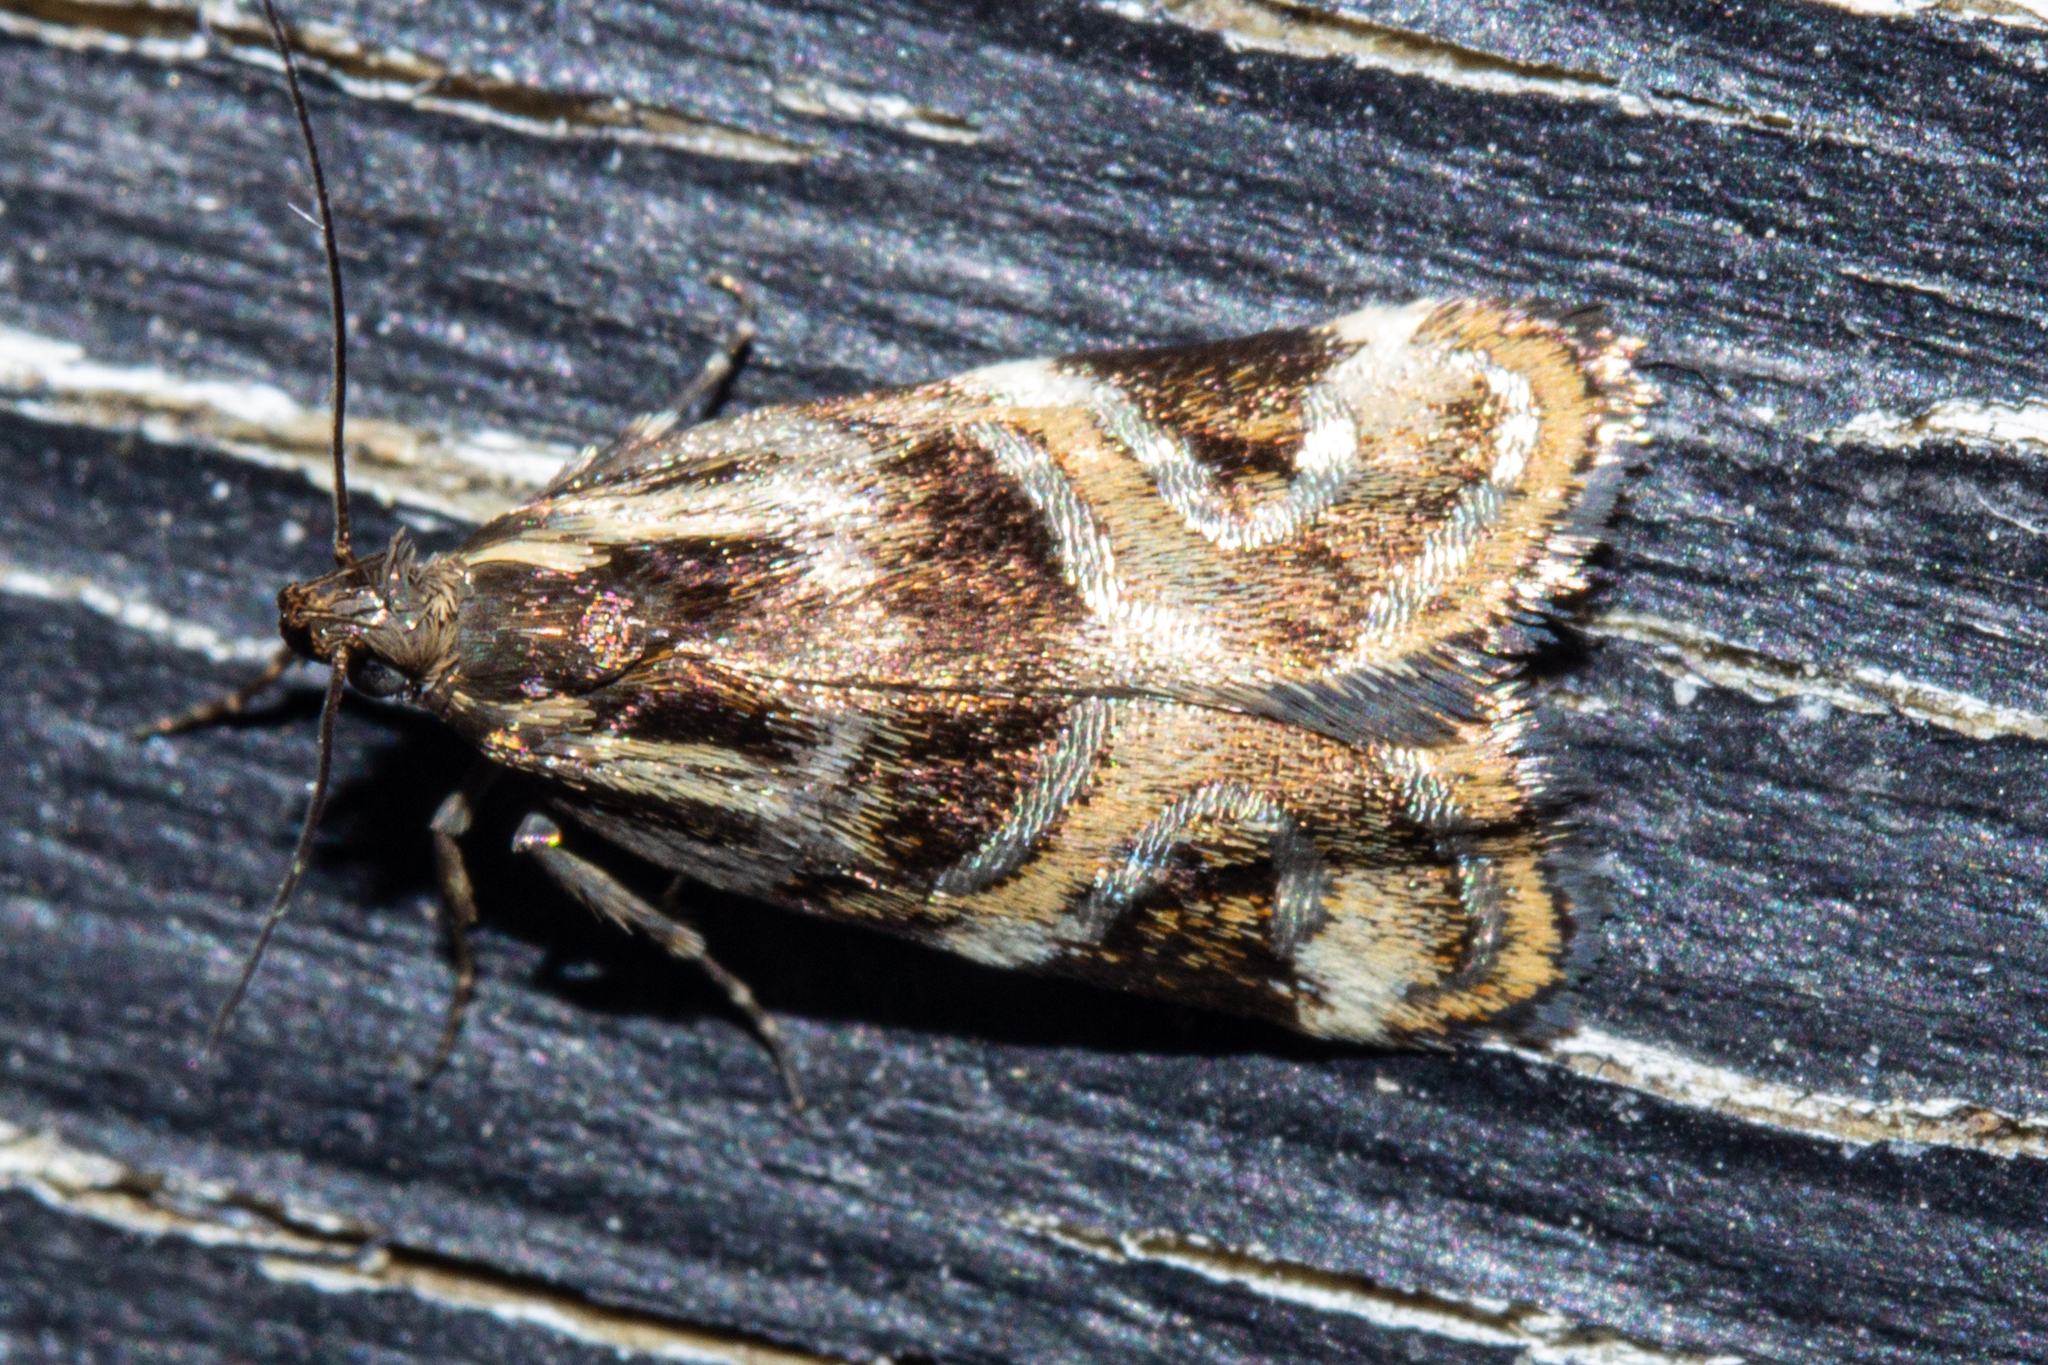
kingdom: Animalia
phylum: Arthropoda
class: Insecta
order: Lepidoptera
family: Oecophoridae
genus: Hierodoris
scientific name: Hierodoris s-fractum
